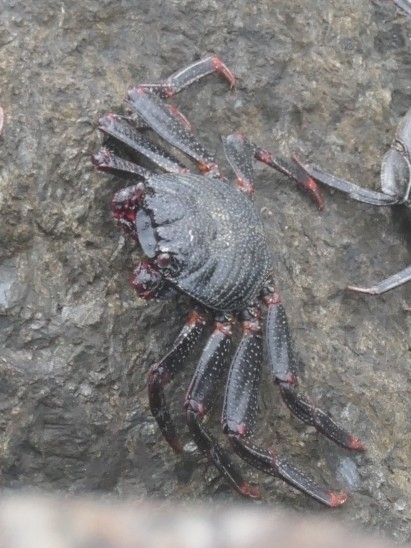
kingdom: Animalia
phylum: Arthropoda
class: Malacostraca
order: Decapoda
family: Grapsidae
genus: Grapsus
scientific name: Grapsus adscensionis
